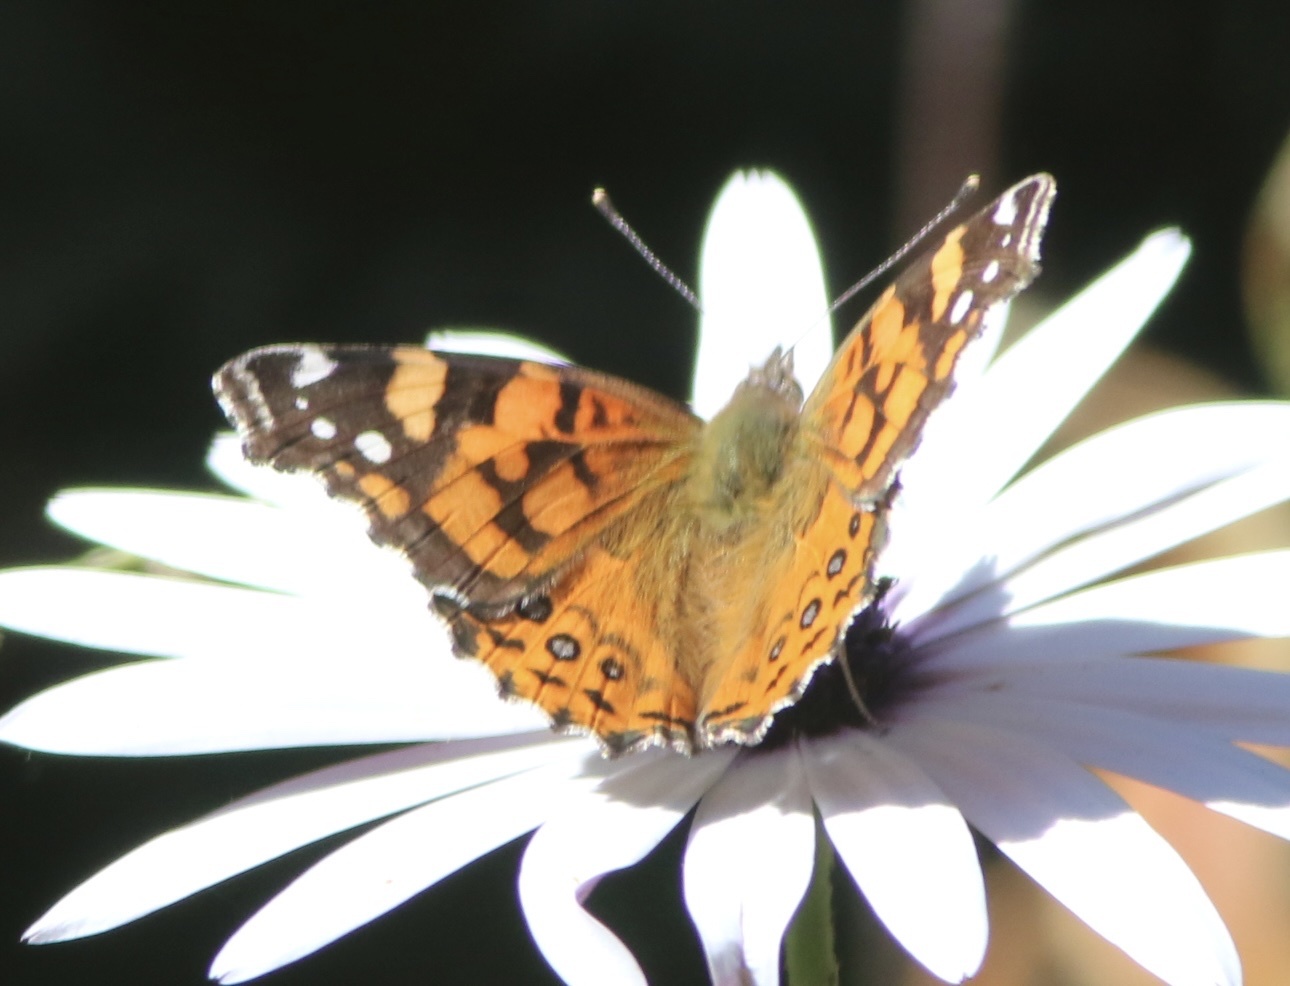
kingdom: Animalia
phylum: Arthropoda
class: Insecta
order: Lepidoptera
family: Nymphalidae
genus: Vanessa
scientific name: Vanessa annabella
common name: West coast lady
